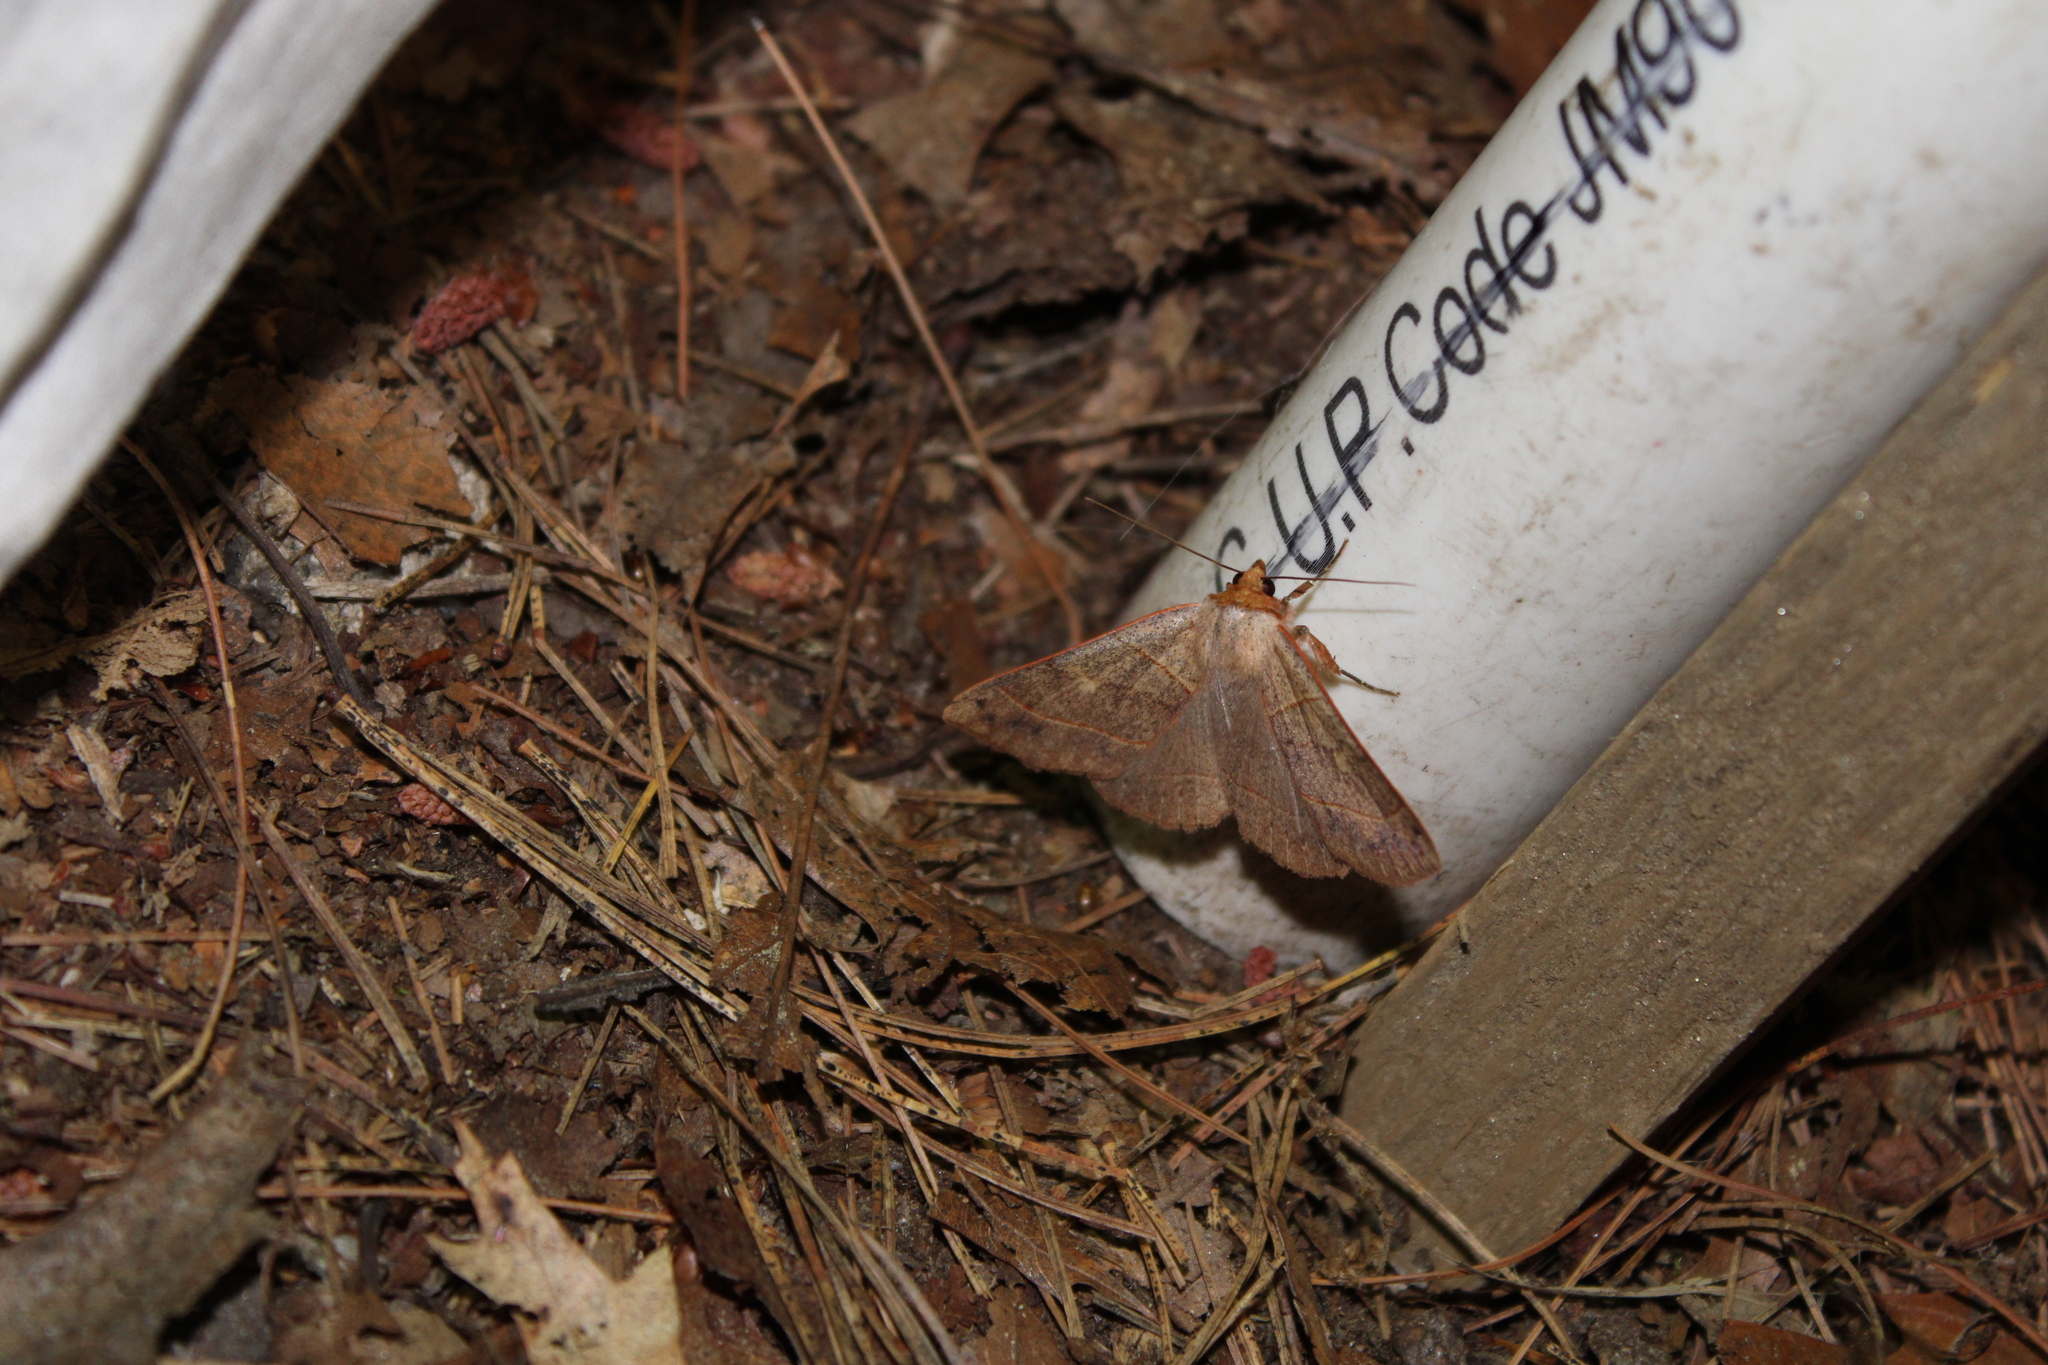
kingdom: Animalia
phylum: Arthropoda
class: Insecta
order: Lepidoptera
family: Erebidae
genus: Panopoda
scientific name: Panopoda rufimargo
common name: Red-lined panopoda moth
